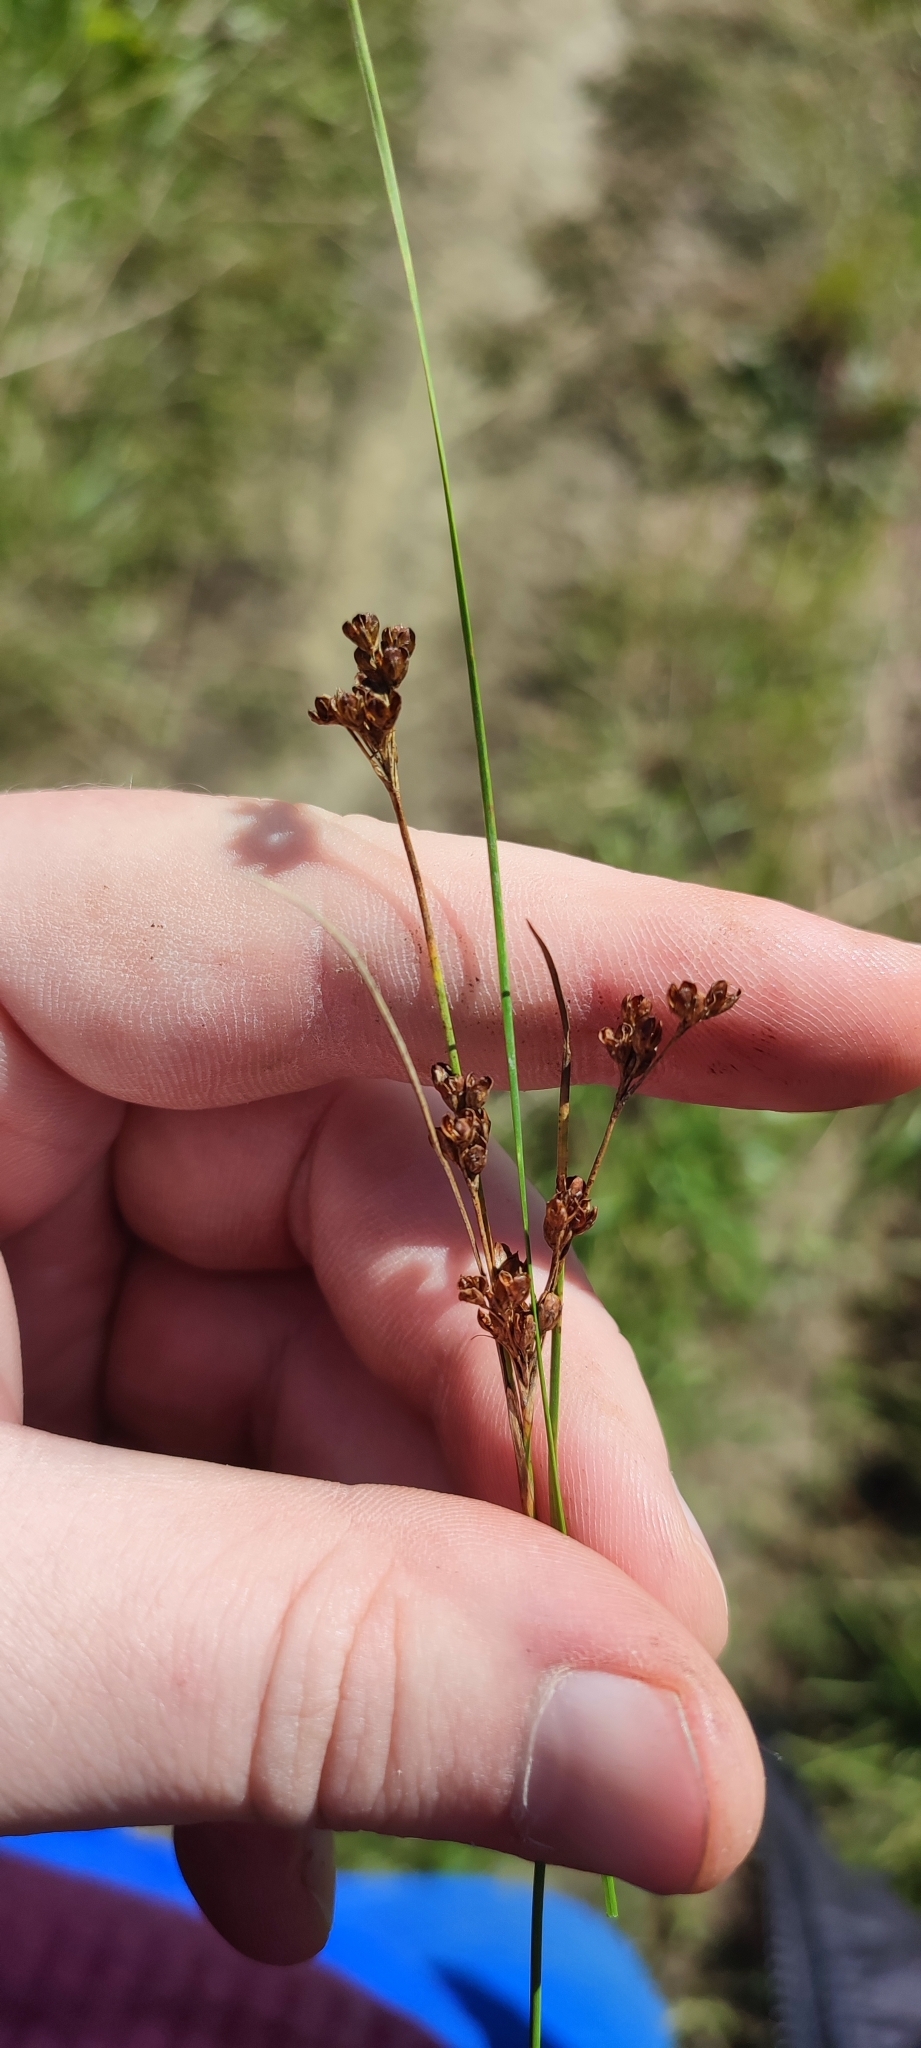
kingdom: Plantae
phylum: Tracheophyta
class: Liliopsida
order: Poales
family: Juncaceae
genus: Juncus
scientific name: Juncus compressus
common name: Round-fruited rush
